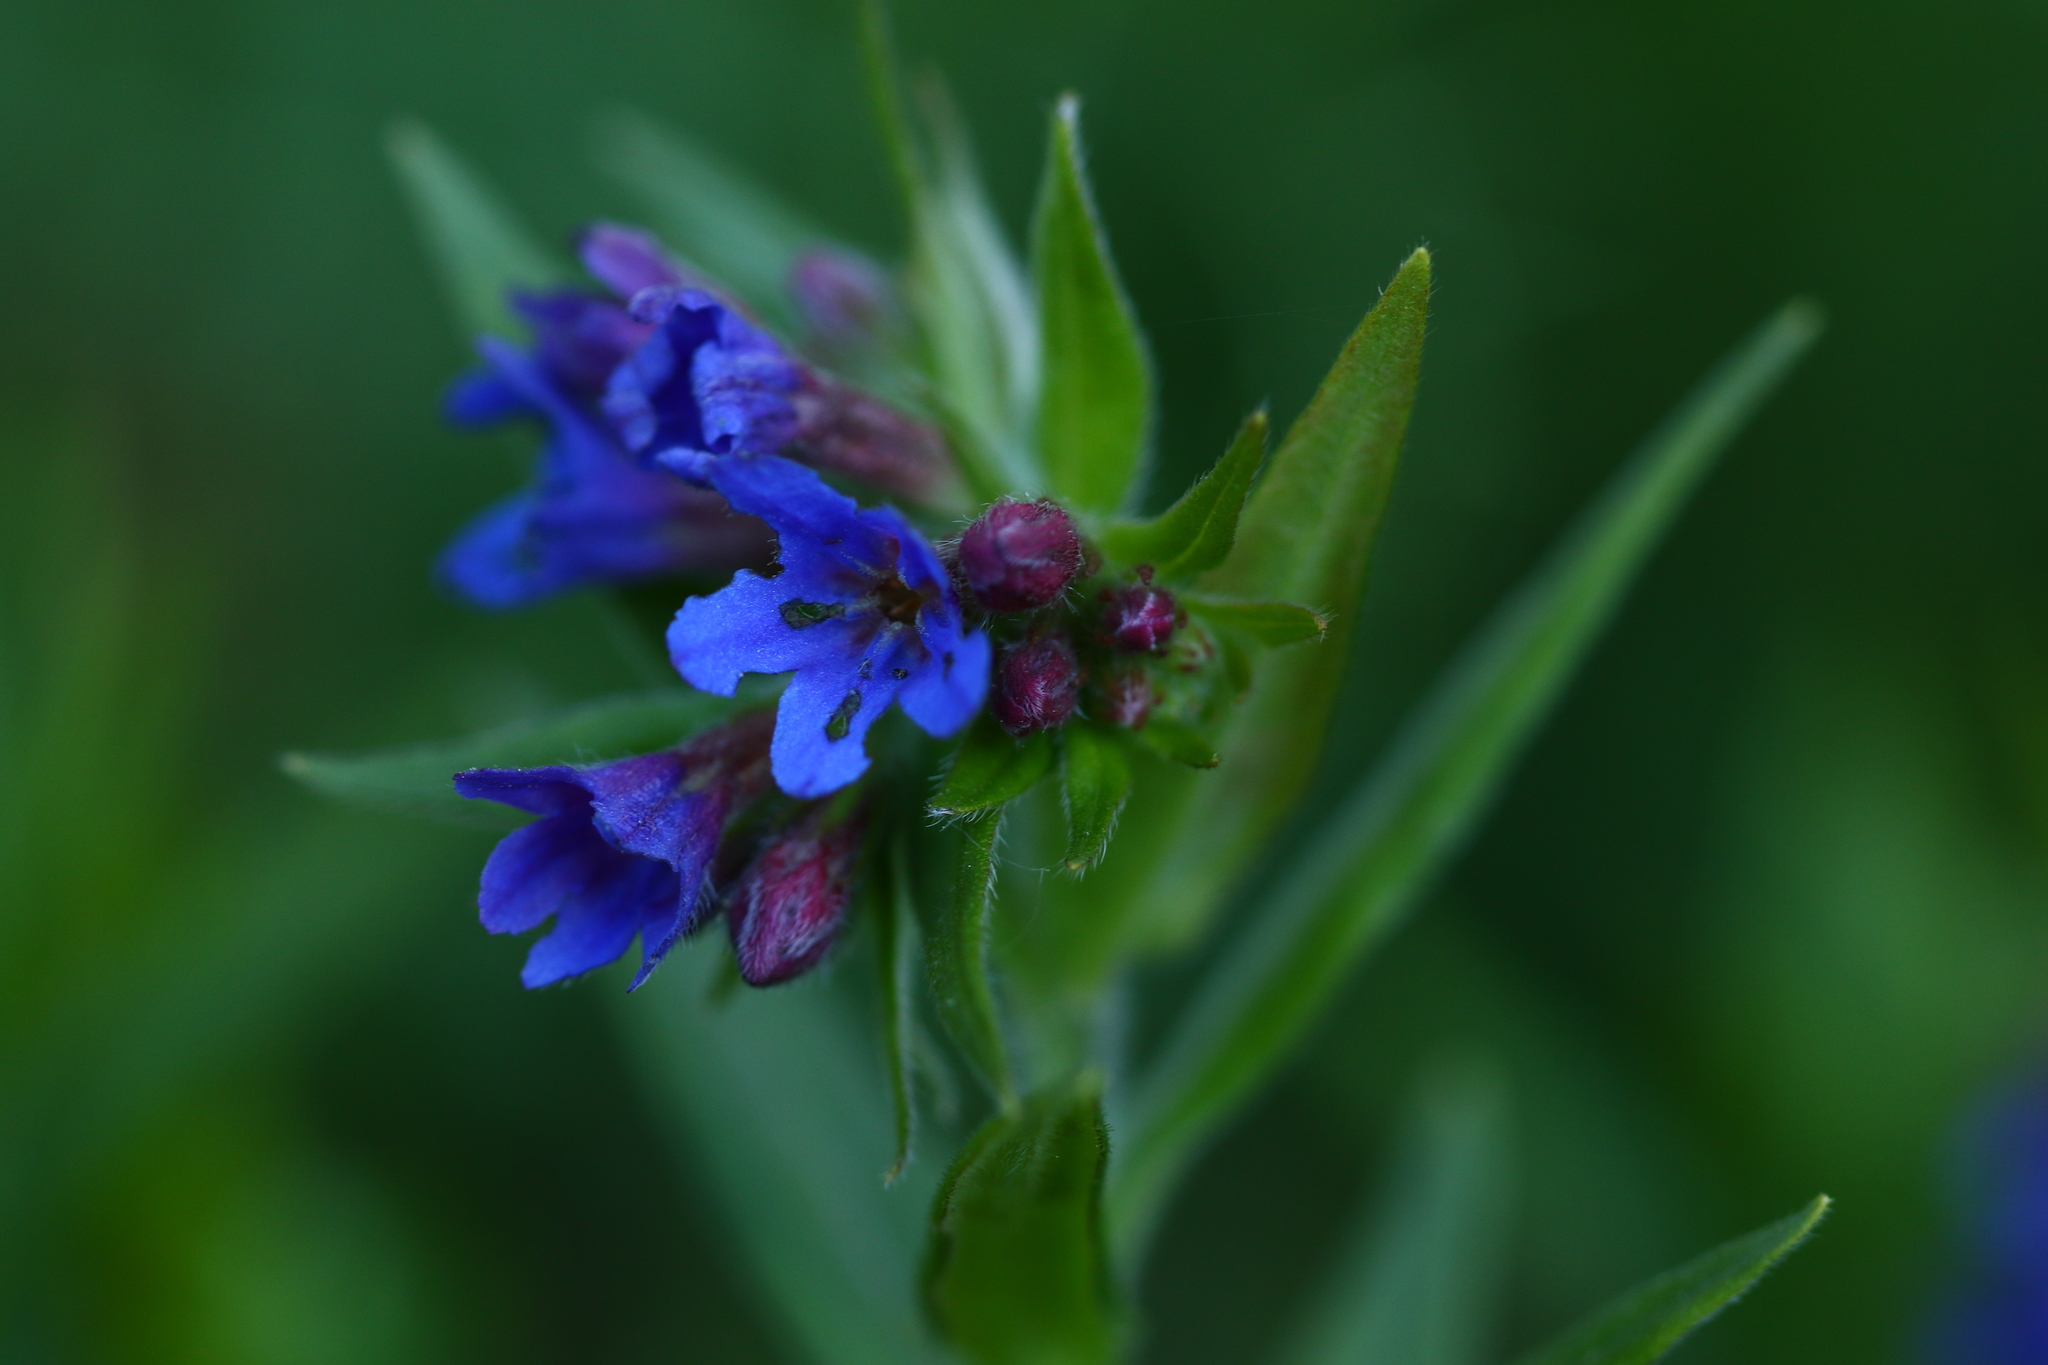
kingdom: Plantae
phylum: Tracheophyta
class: Magnoliopsida
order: Boraginales
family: Boraginaceae
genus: Aegonychon
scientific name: Aegonychon purpurocaeruleum
